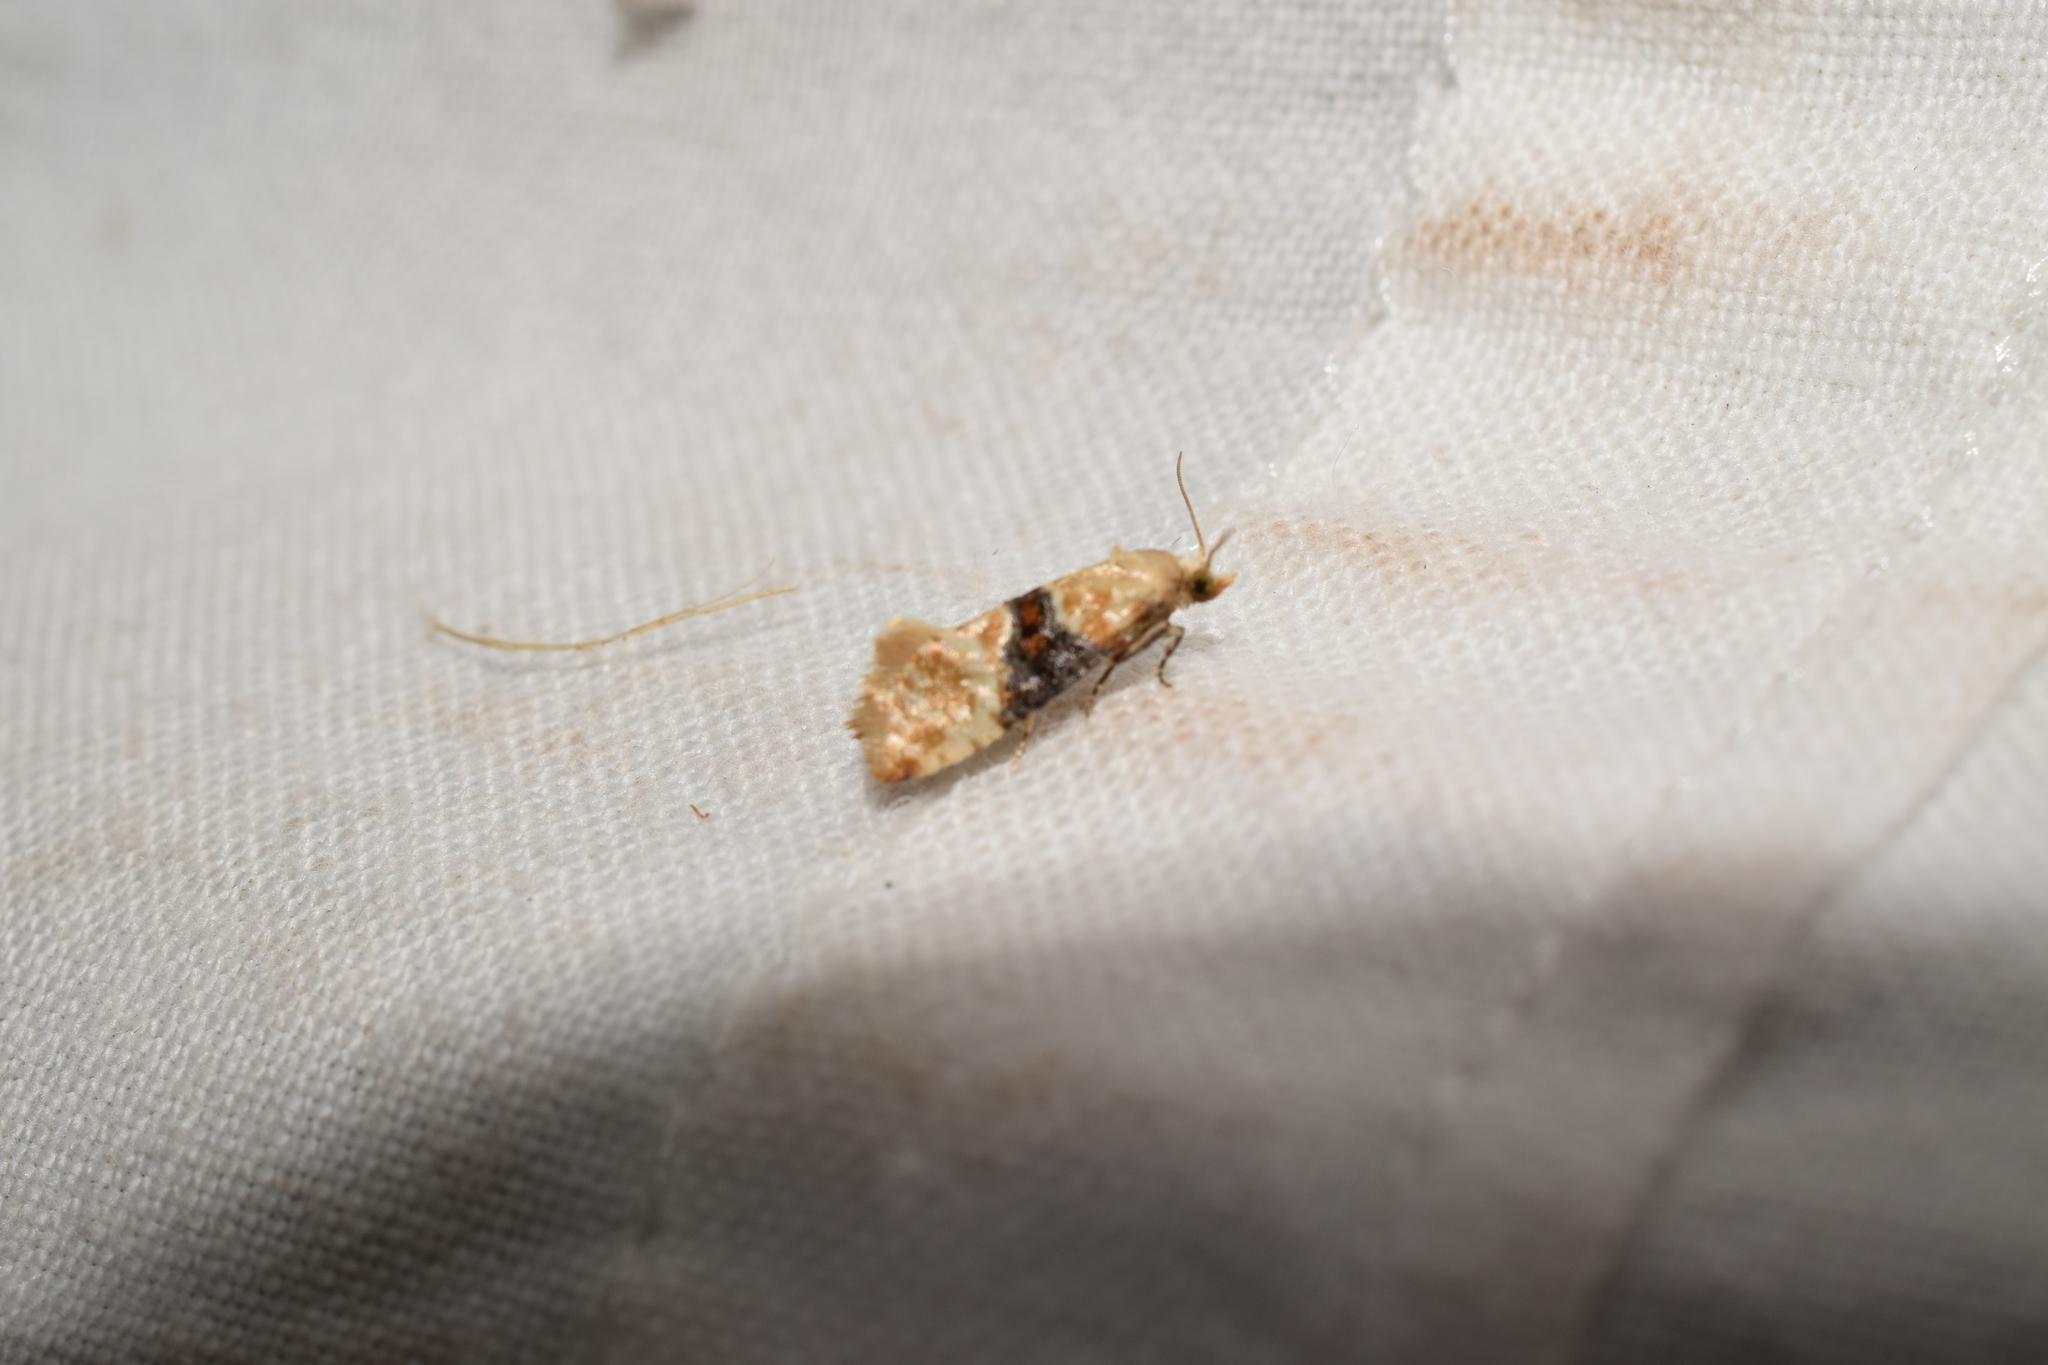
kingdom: Animalia
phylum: Arthropoda
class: Insecta
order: Lepidoptera
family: Tortricidae
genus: Eupoecilia
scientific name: Eupoecilia ambiguella
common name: Vine moth
